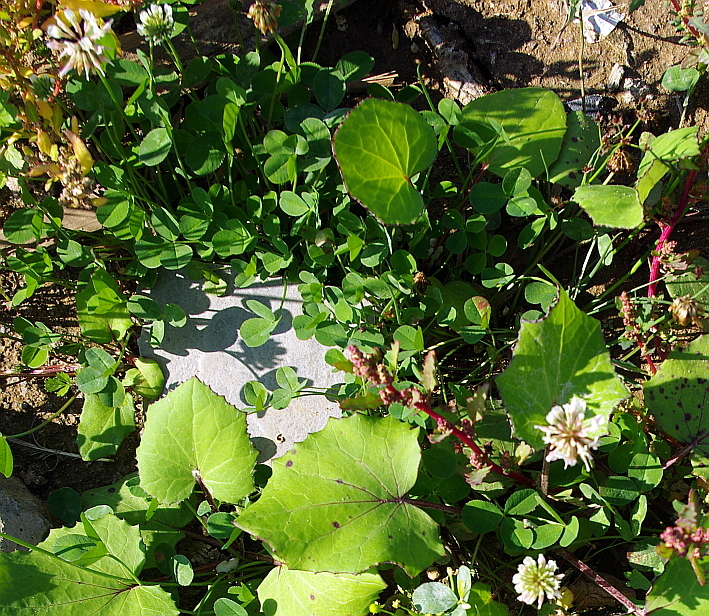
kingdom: Plantae
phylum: Tracheophyta
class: Magnoliopsida
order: Fabales
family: Fabaceae
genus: Trifolium
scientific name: Trifolium repens
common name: White clover
